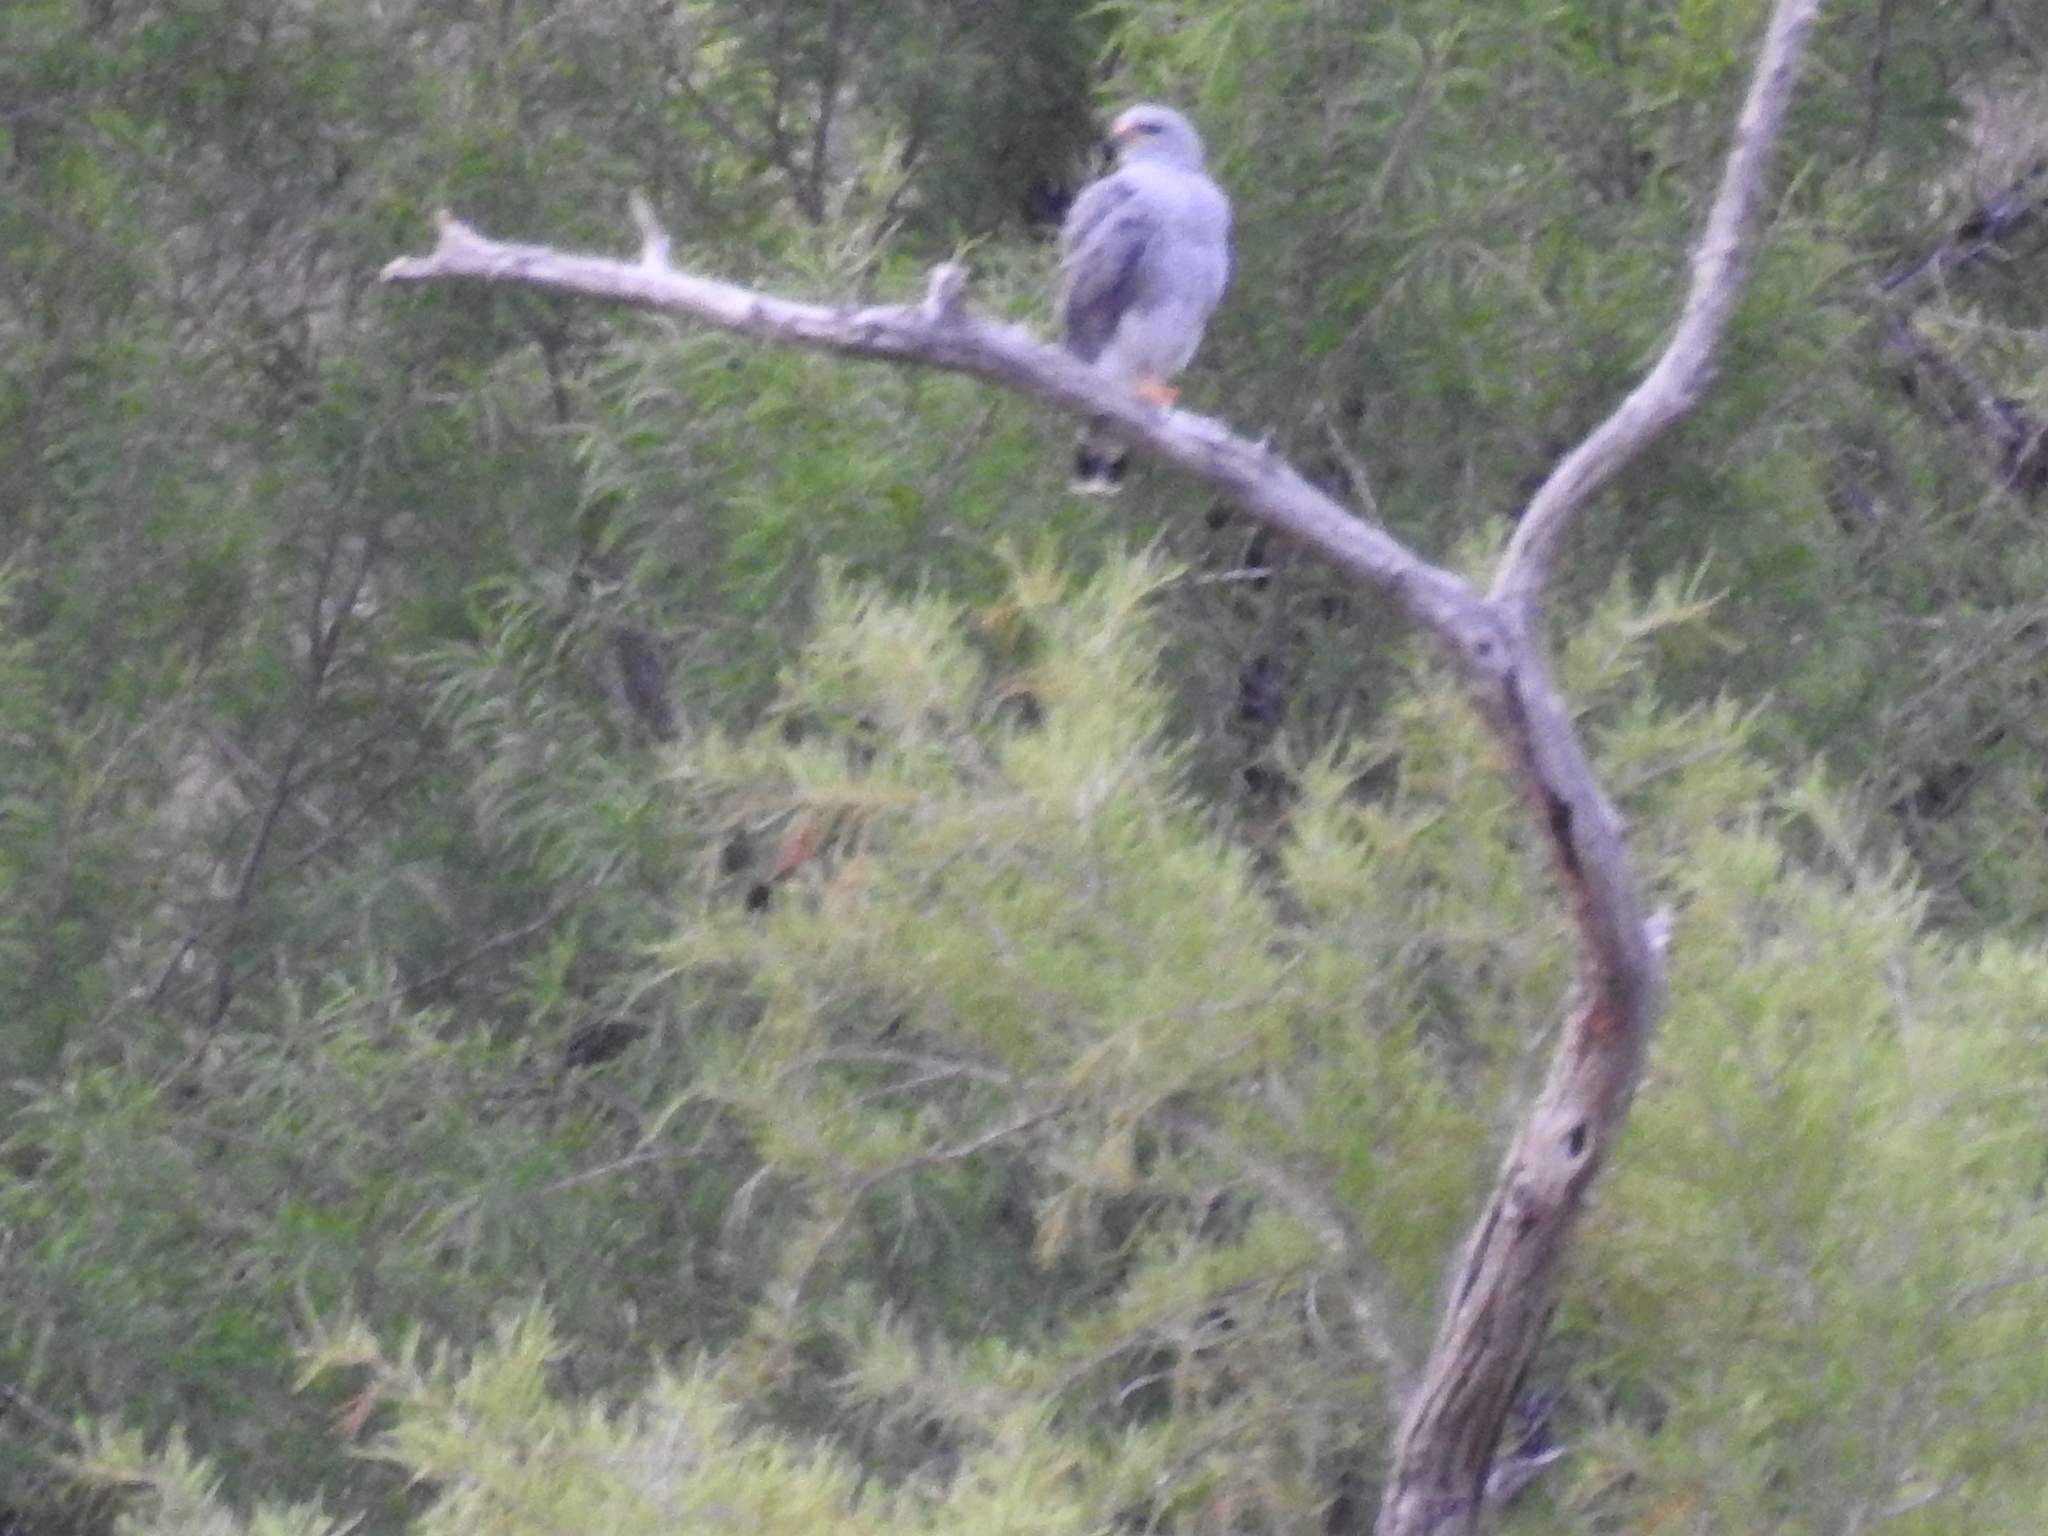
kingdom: Animalia
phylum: Chordata
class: Aves
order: Accipitriformes
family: Accipitridae
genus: Buteo
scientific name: Buteo nitidus
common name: Grey-lined hawk
